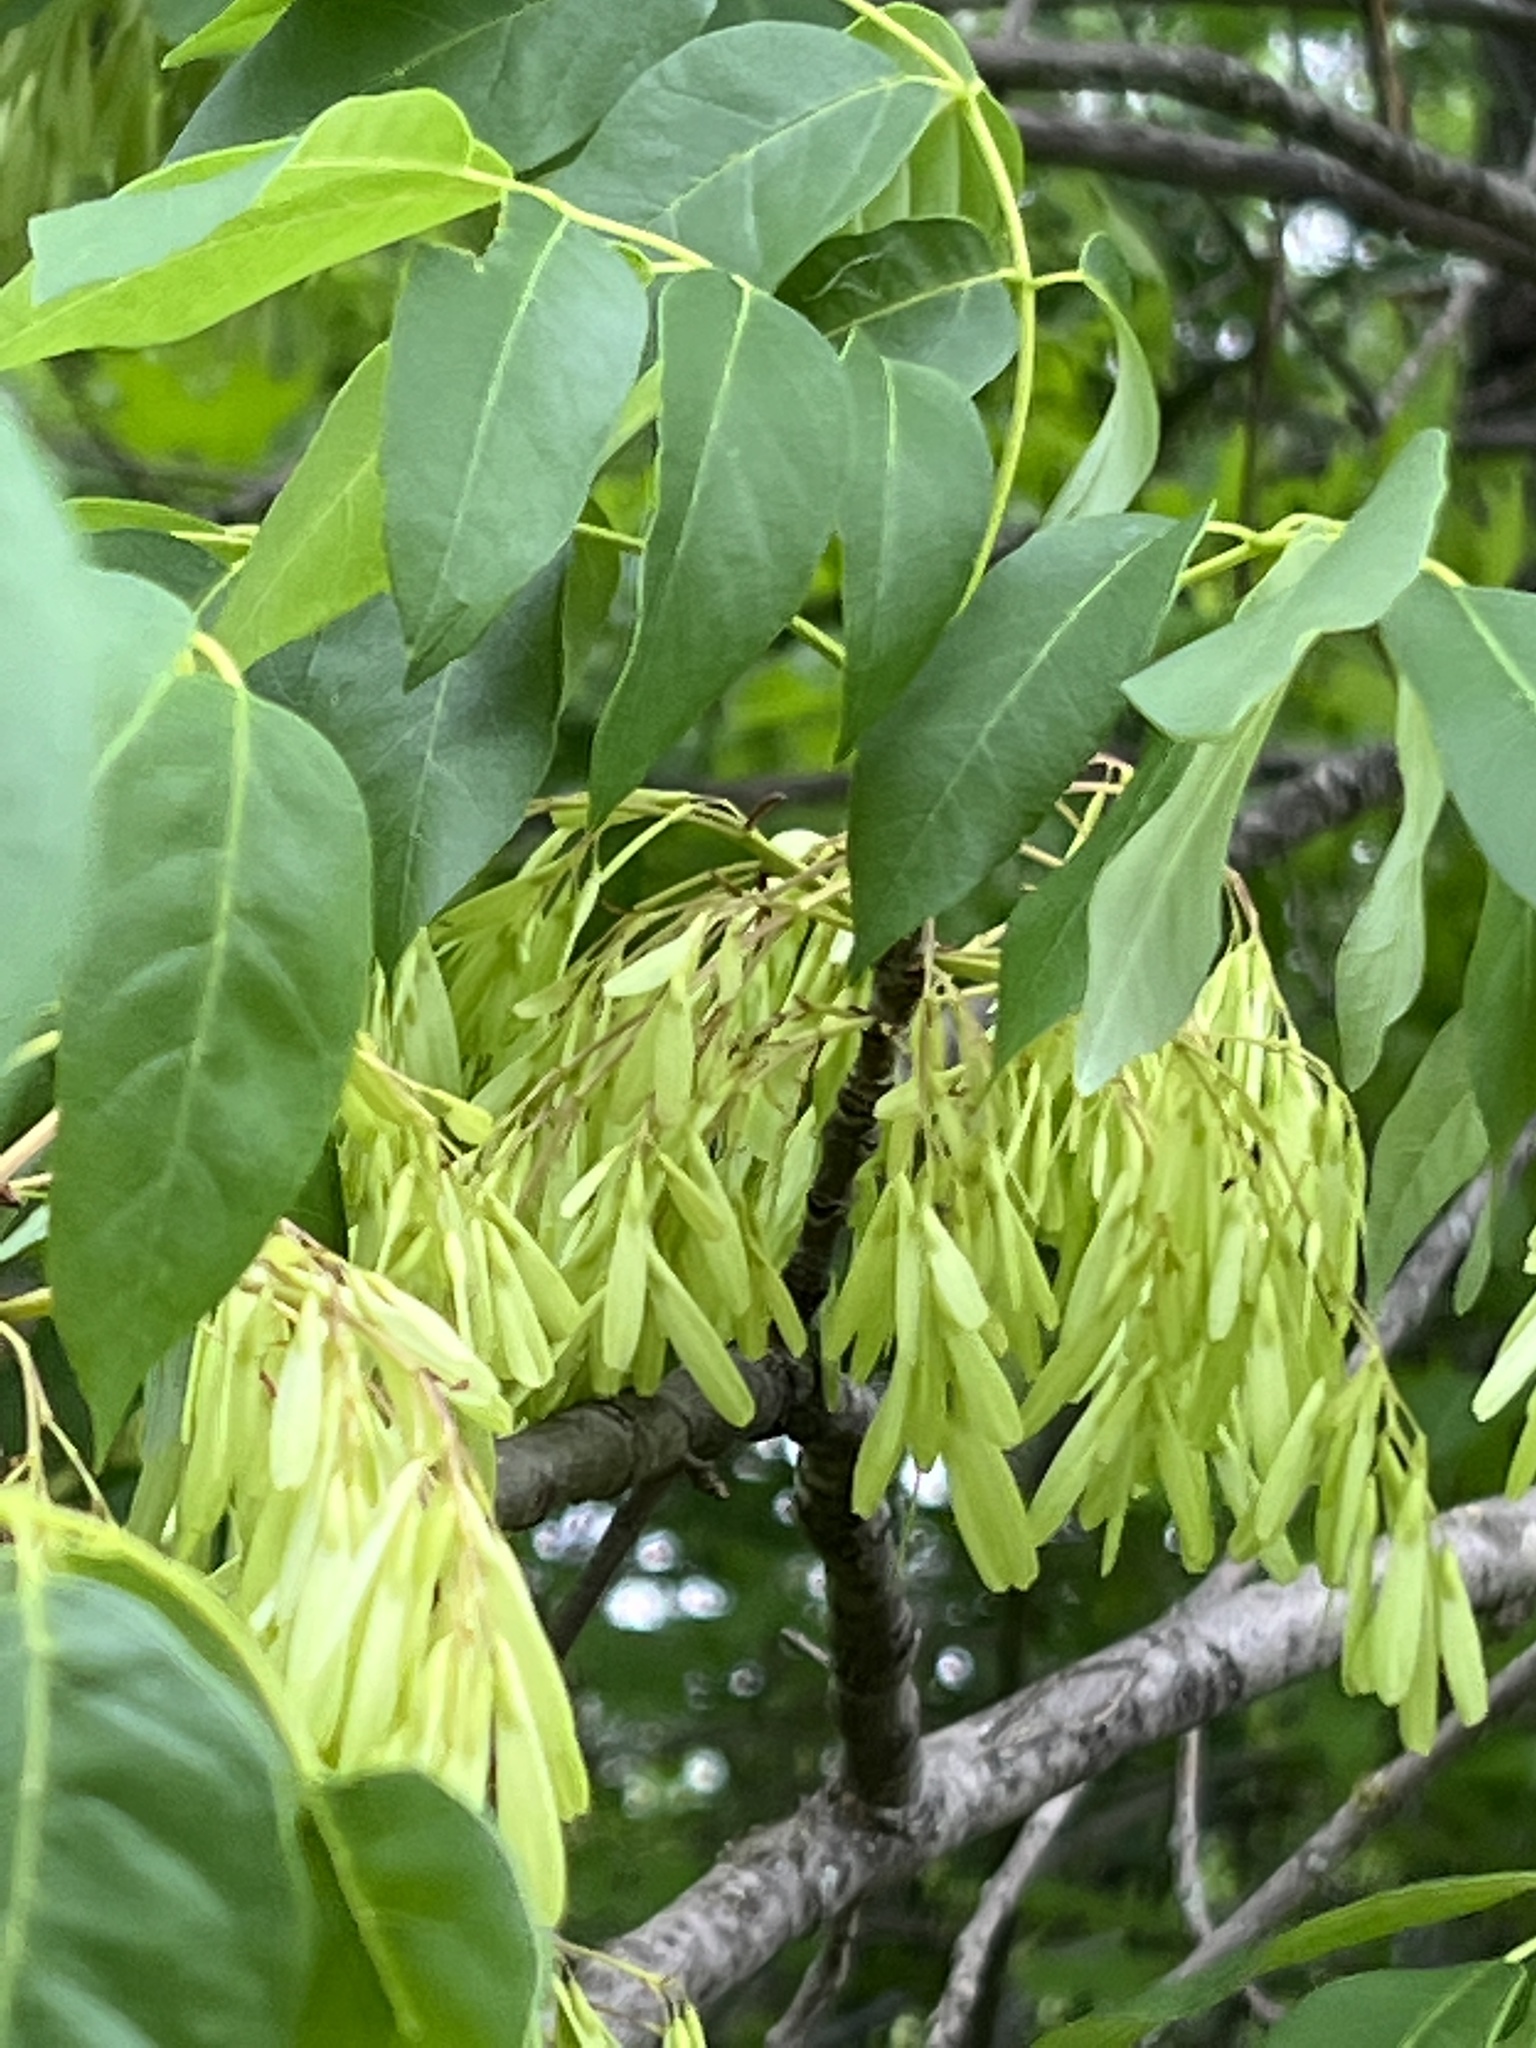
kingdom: Plantae
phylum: Tracheophyta
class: Magnoliopsida
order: Lamiales
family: Oleaceae
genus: Fraxinus
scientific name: Fraxinus albicans
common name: Texas ash
